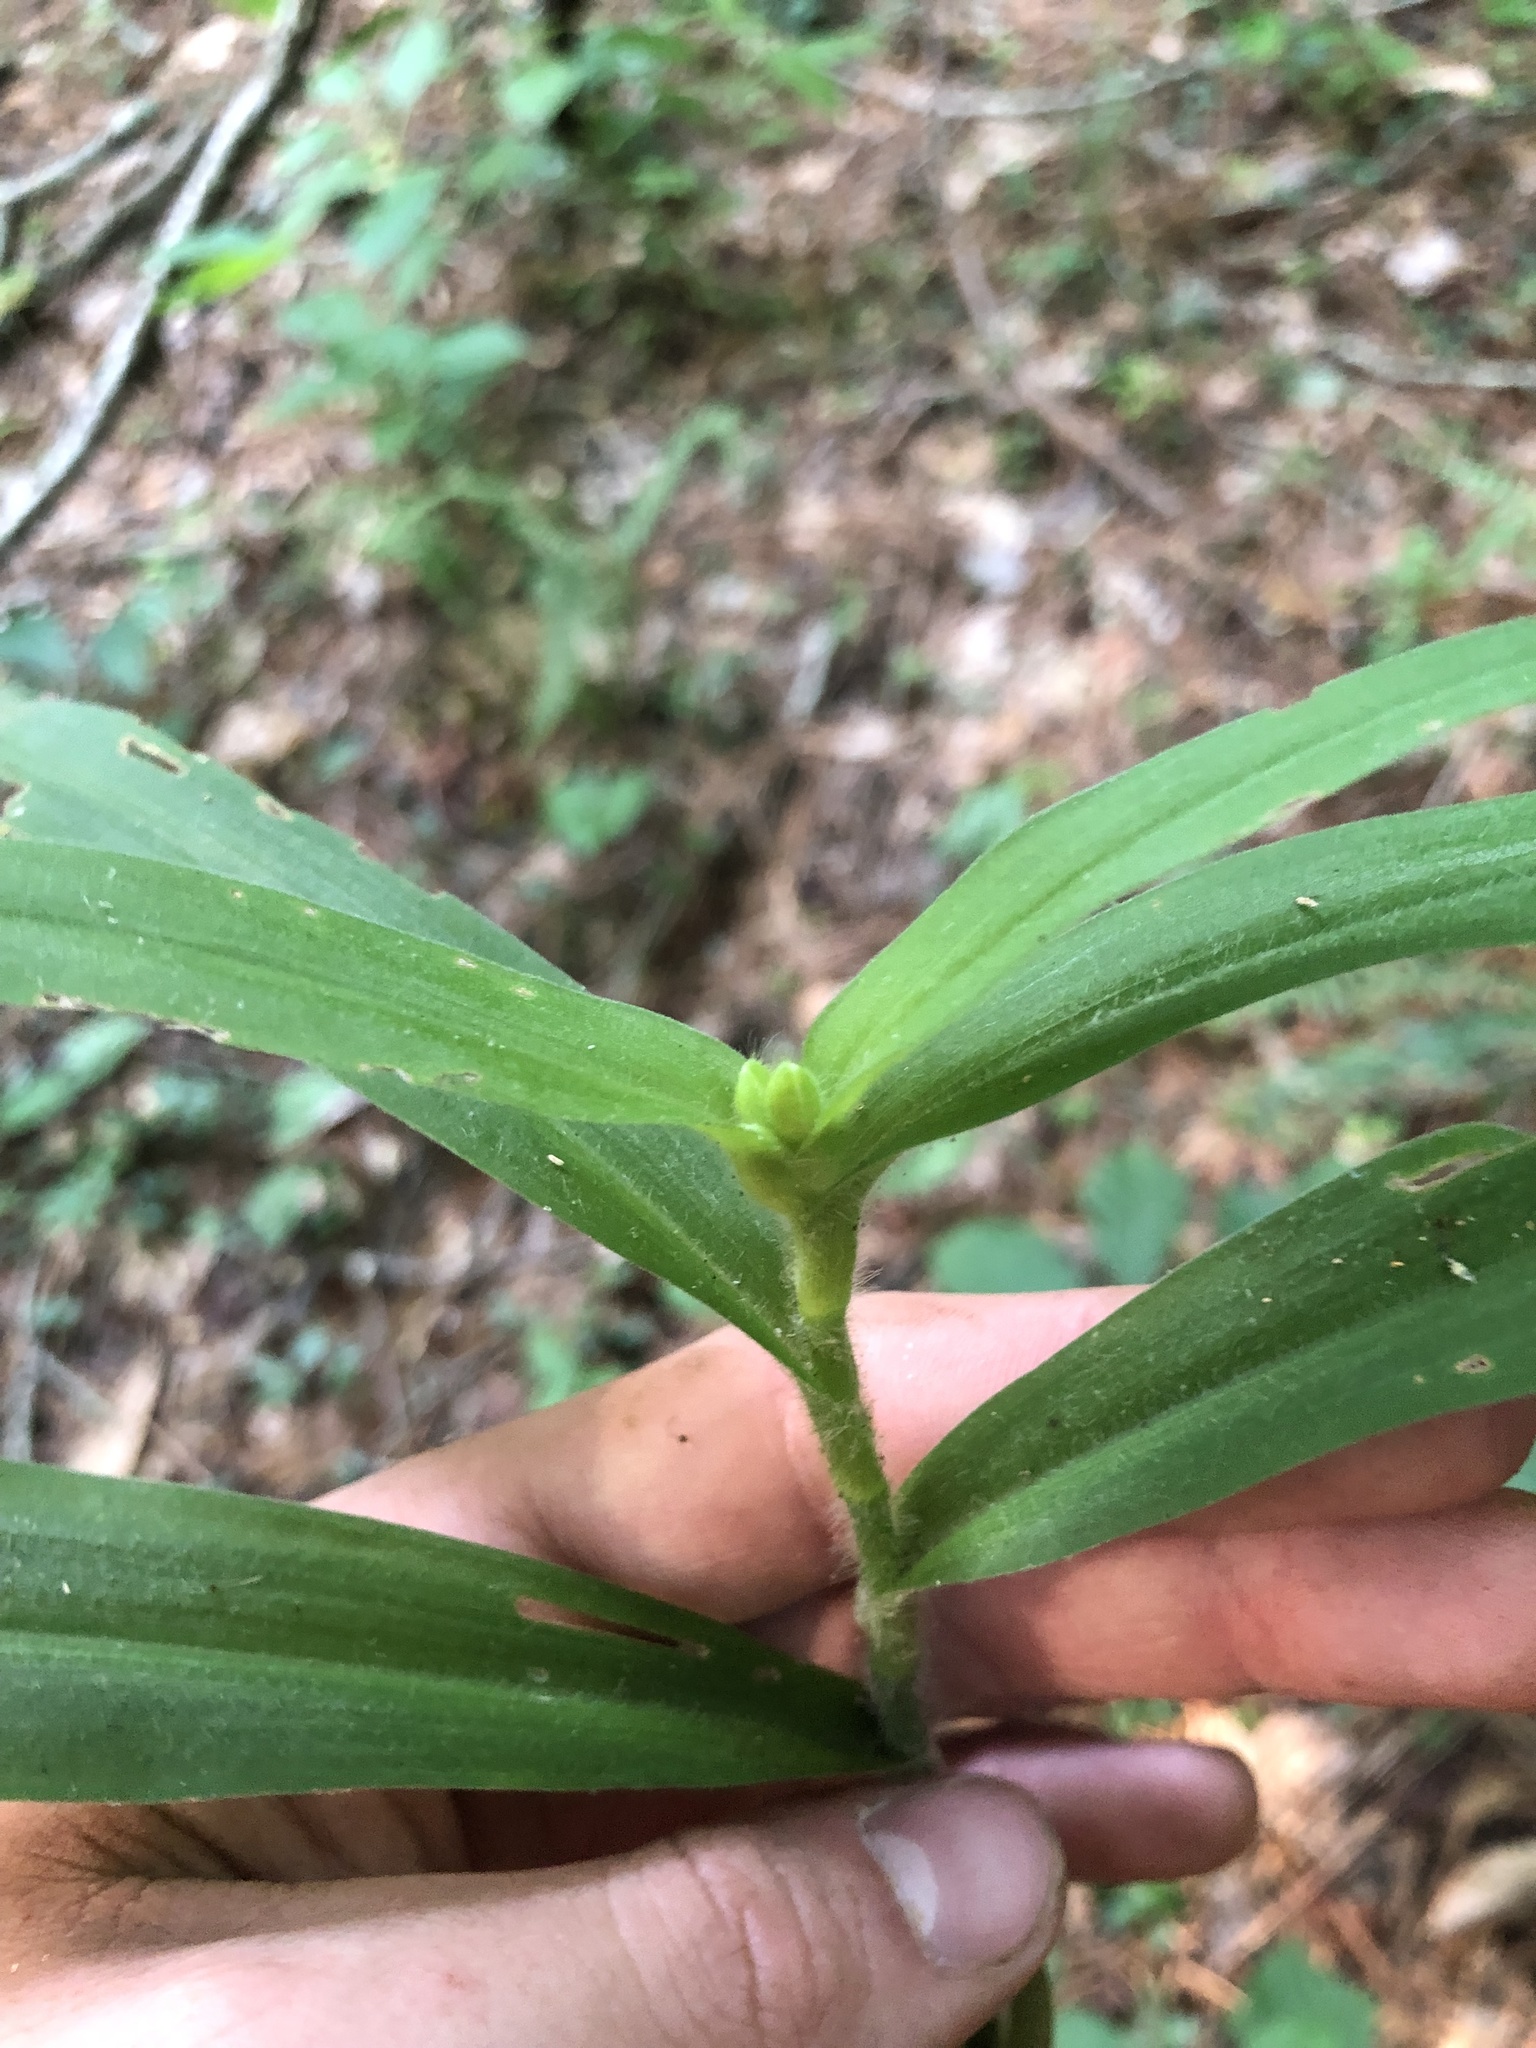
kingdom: Plantae
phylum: Tracheophyta
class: Liliopsida
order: Commelinales
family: Commelinaceae
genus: Tradescantia
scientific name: Tradescantia subaspera
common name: Wide-leaf spiderwort
